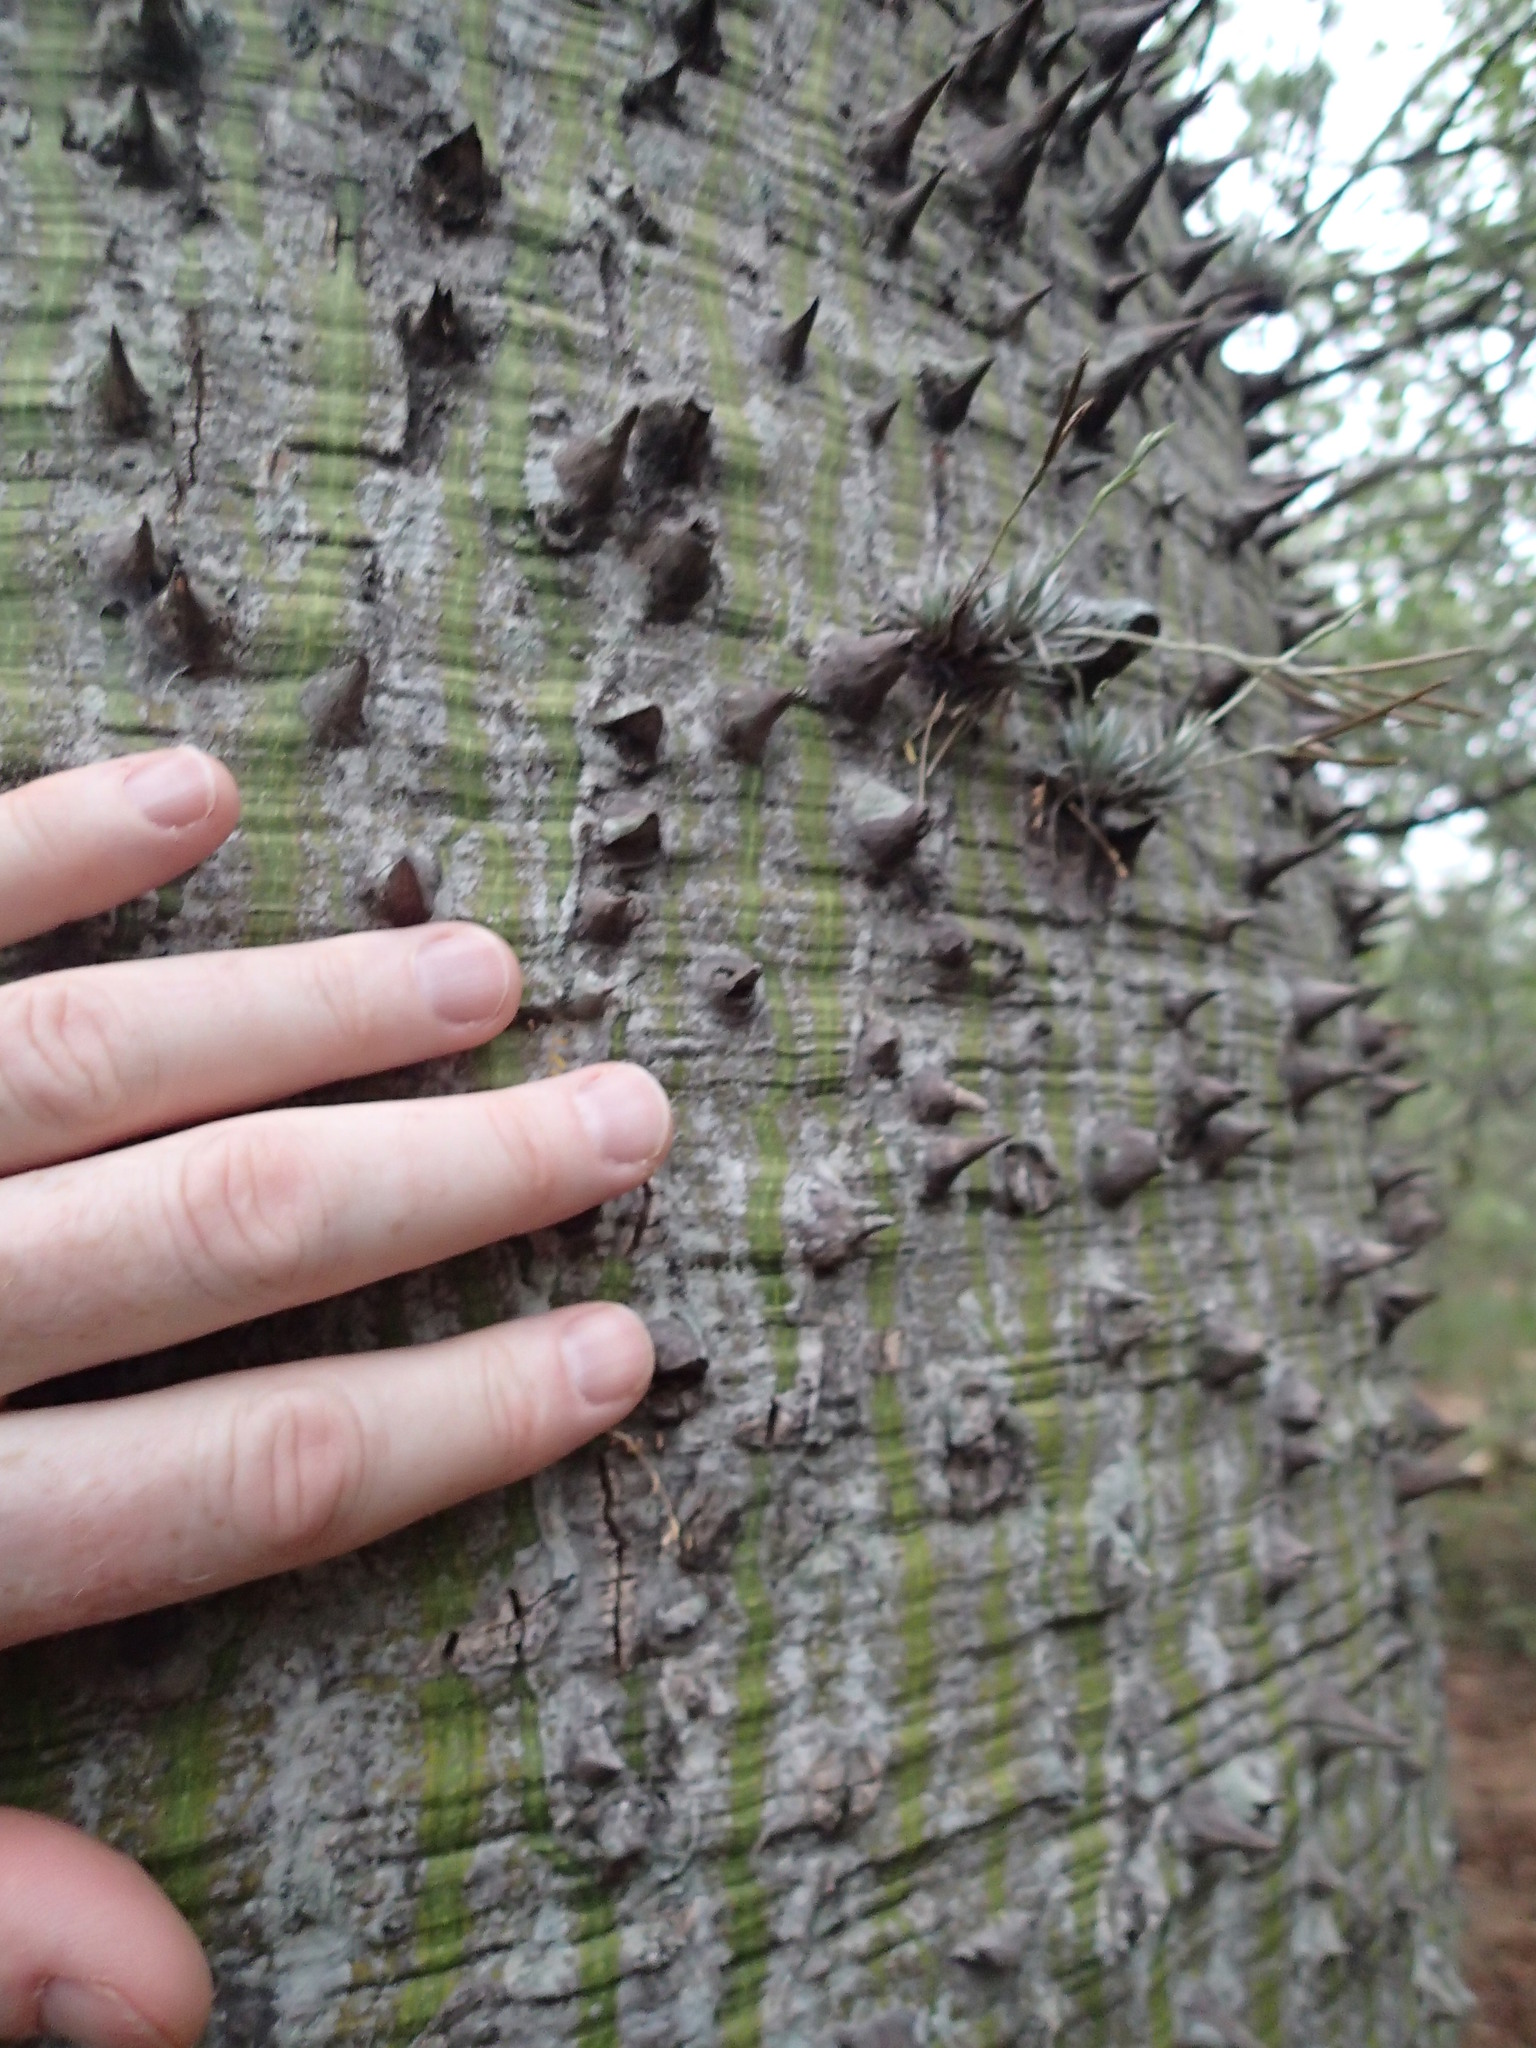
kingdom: Plantae
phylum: Tracheophyta
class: Magnoliopsida
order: Malvales
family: Malvaceae
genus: Ceiba
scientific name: Ceiba chodatii
